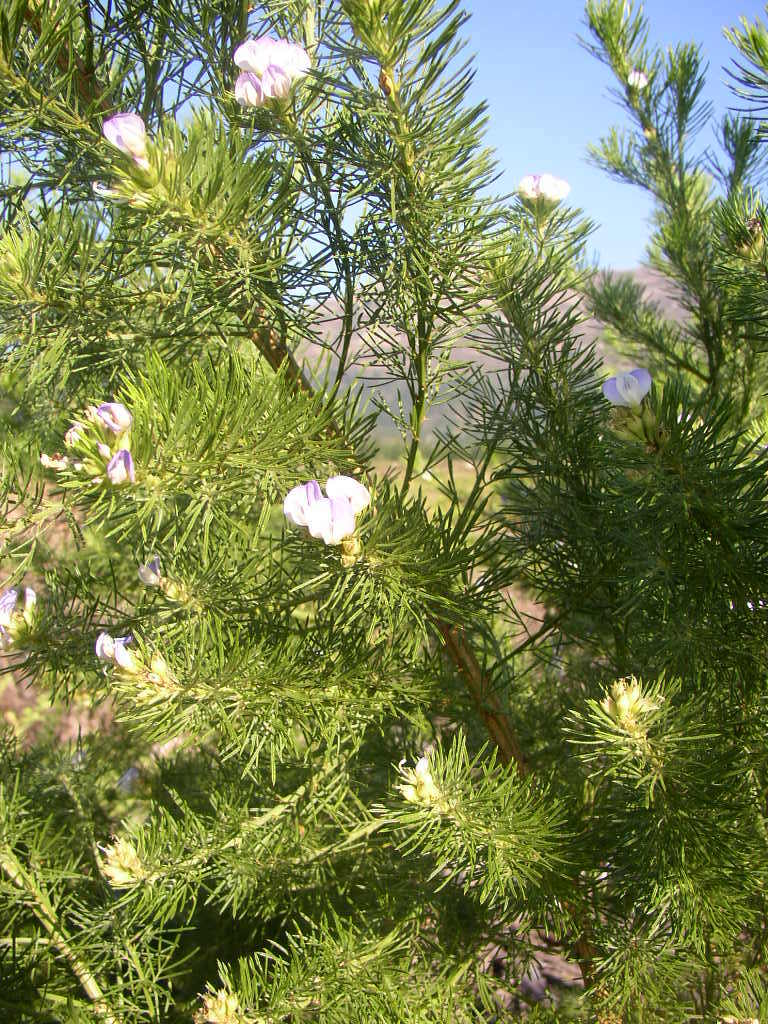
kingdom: Plantae
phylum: Tracheophyta
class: Magnoliopsida
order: Fabales
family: Fabaceae
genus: Psoralea
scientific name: Psoralea pinnata
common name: African scurfpea
